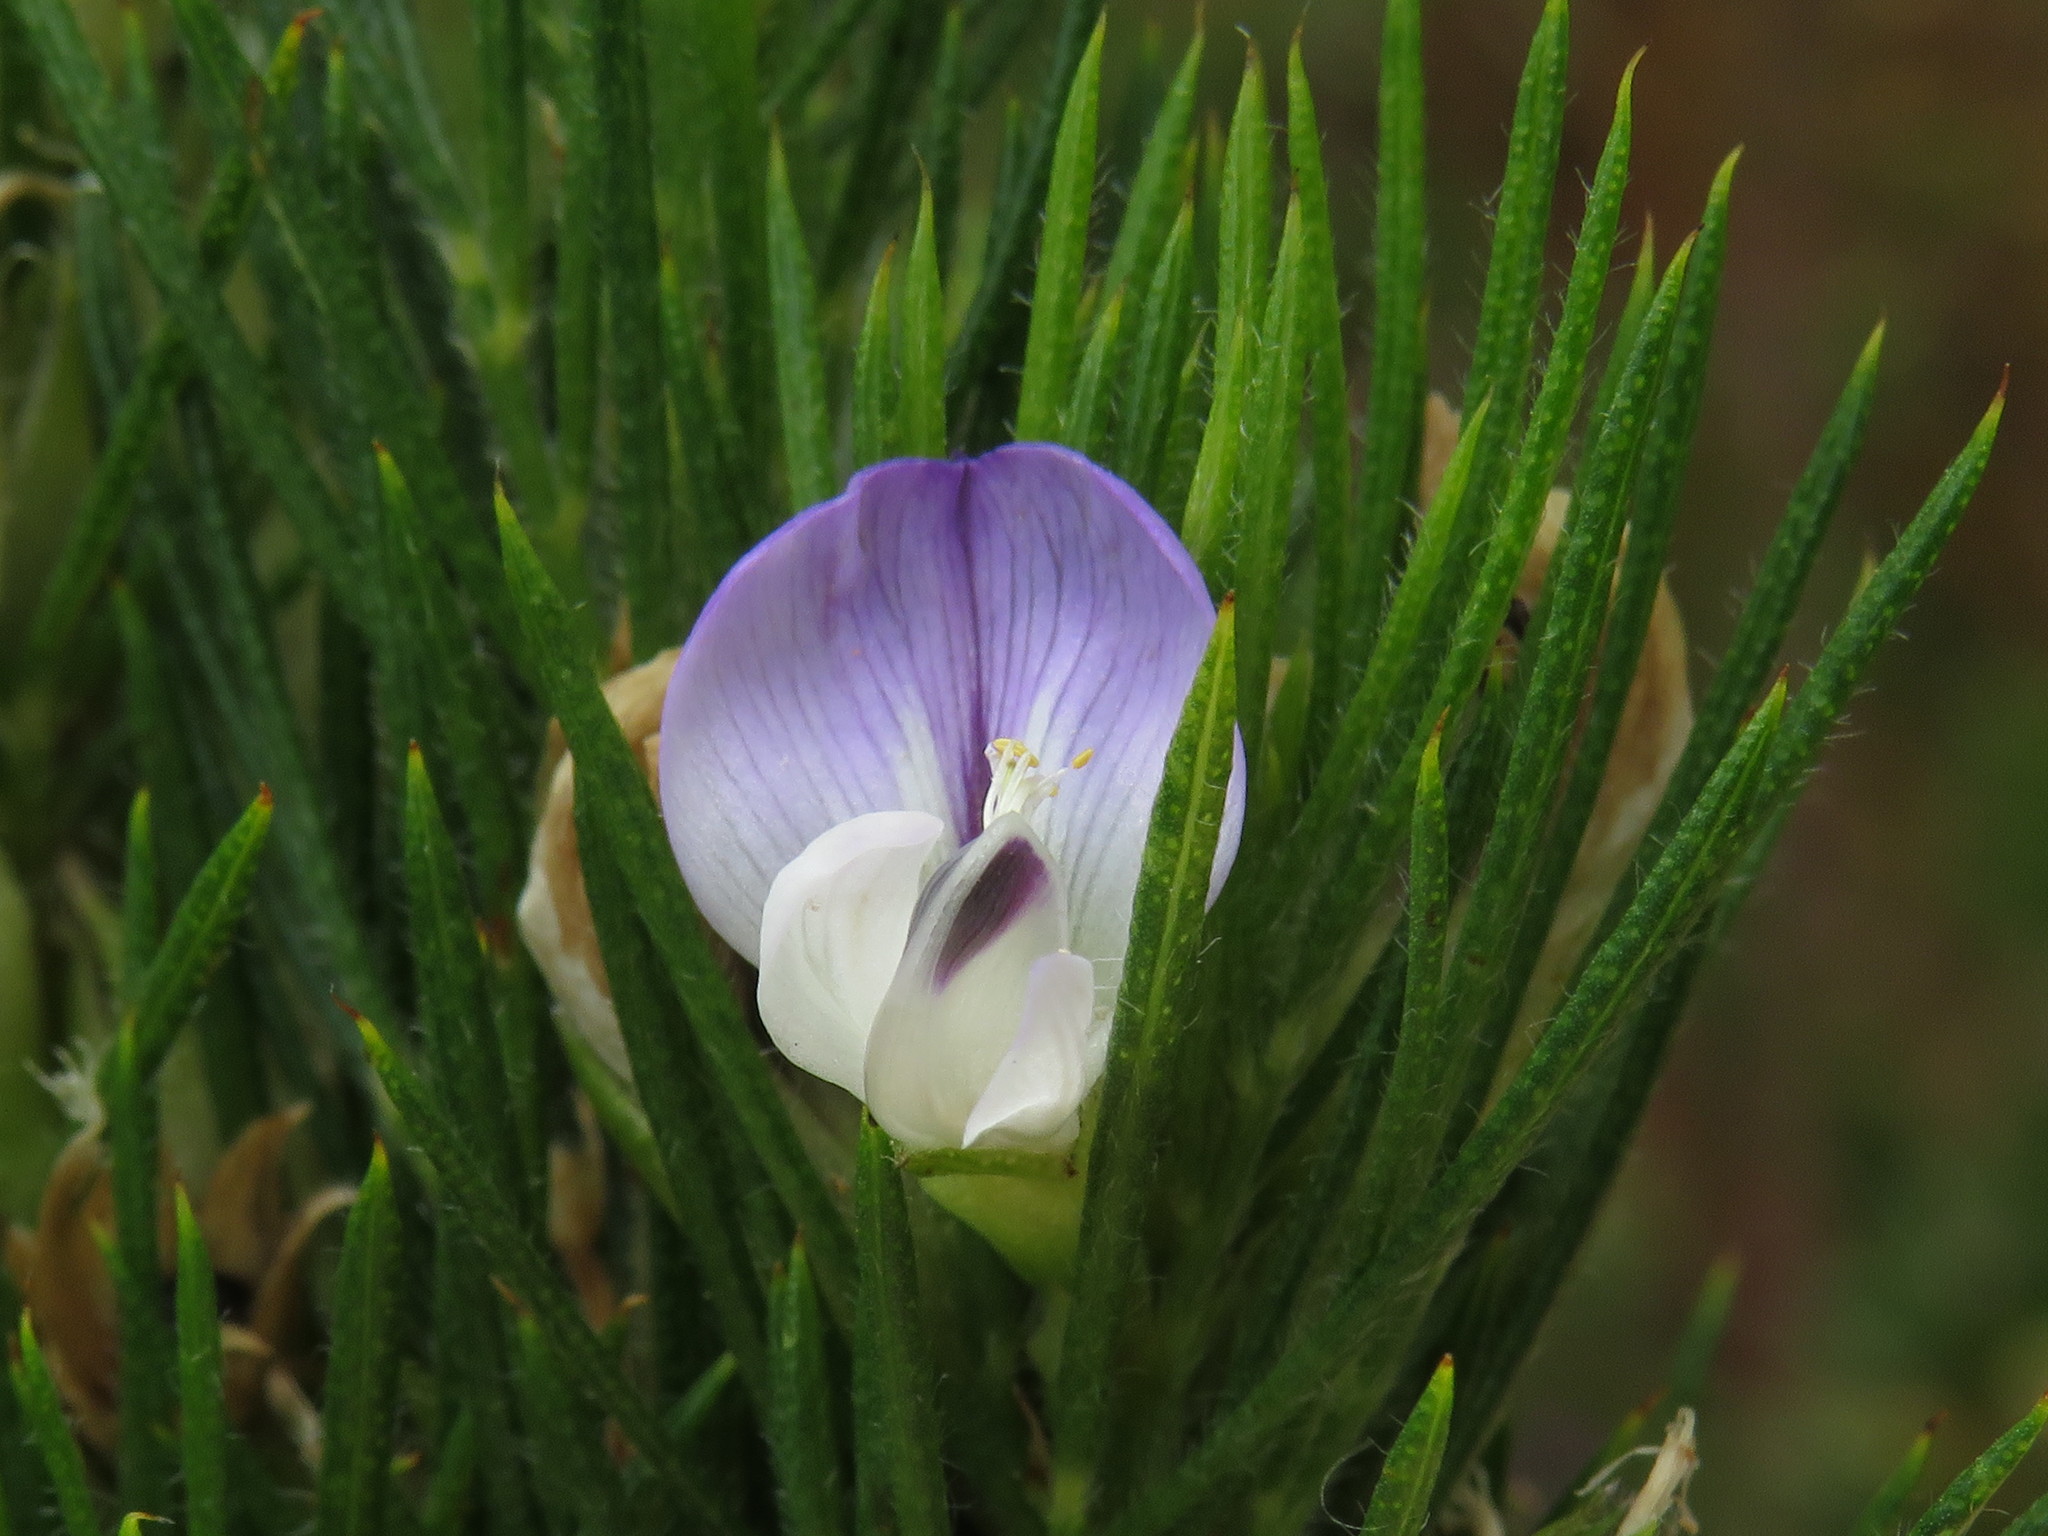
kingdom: Plantae
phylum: Tracheophyta
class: Magnoliopsida
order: Fabales
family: Fabaceae
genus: Psoralea
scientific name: Psoralea pinnata
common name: African scurfpea
